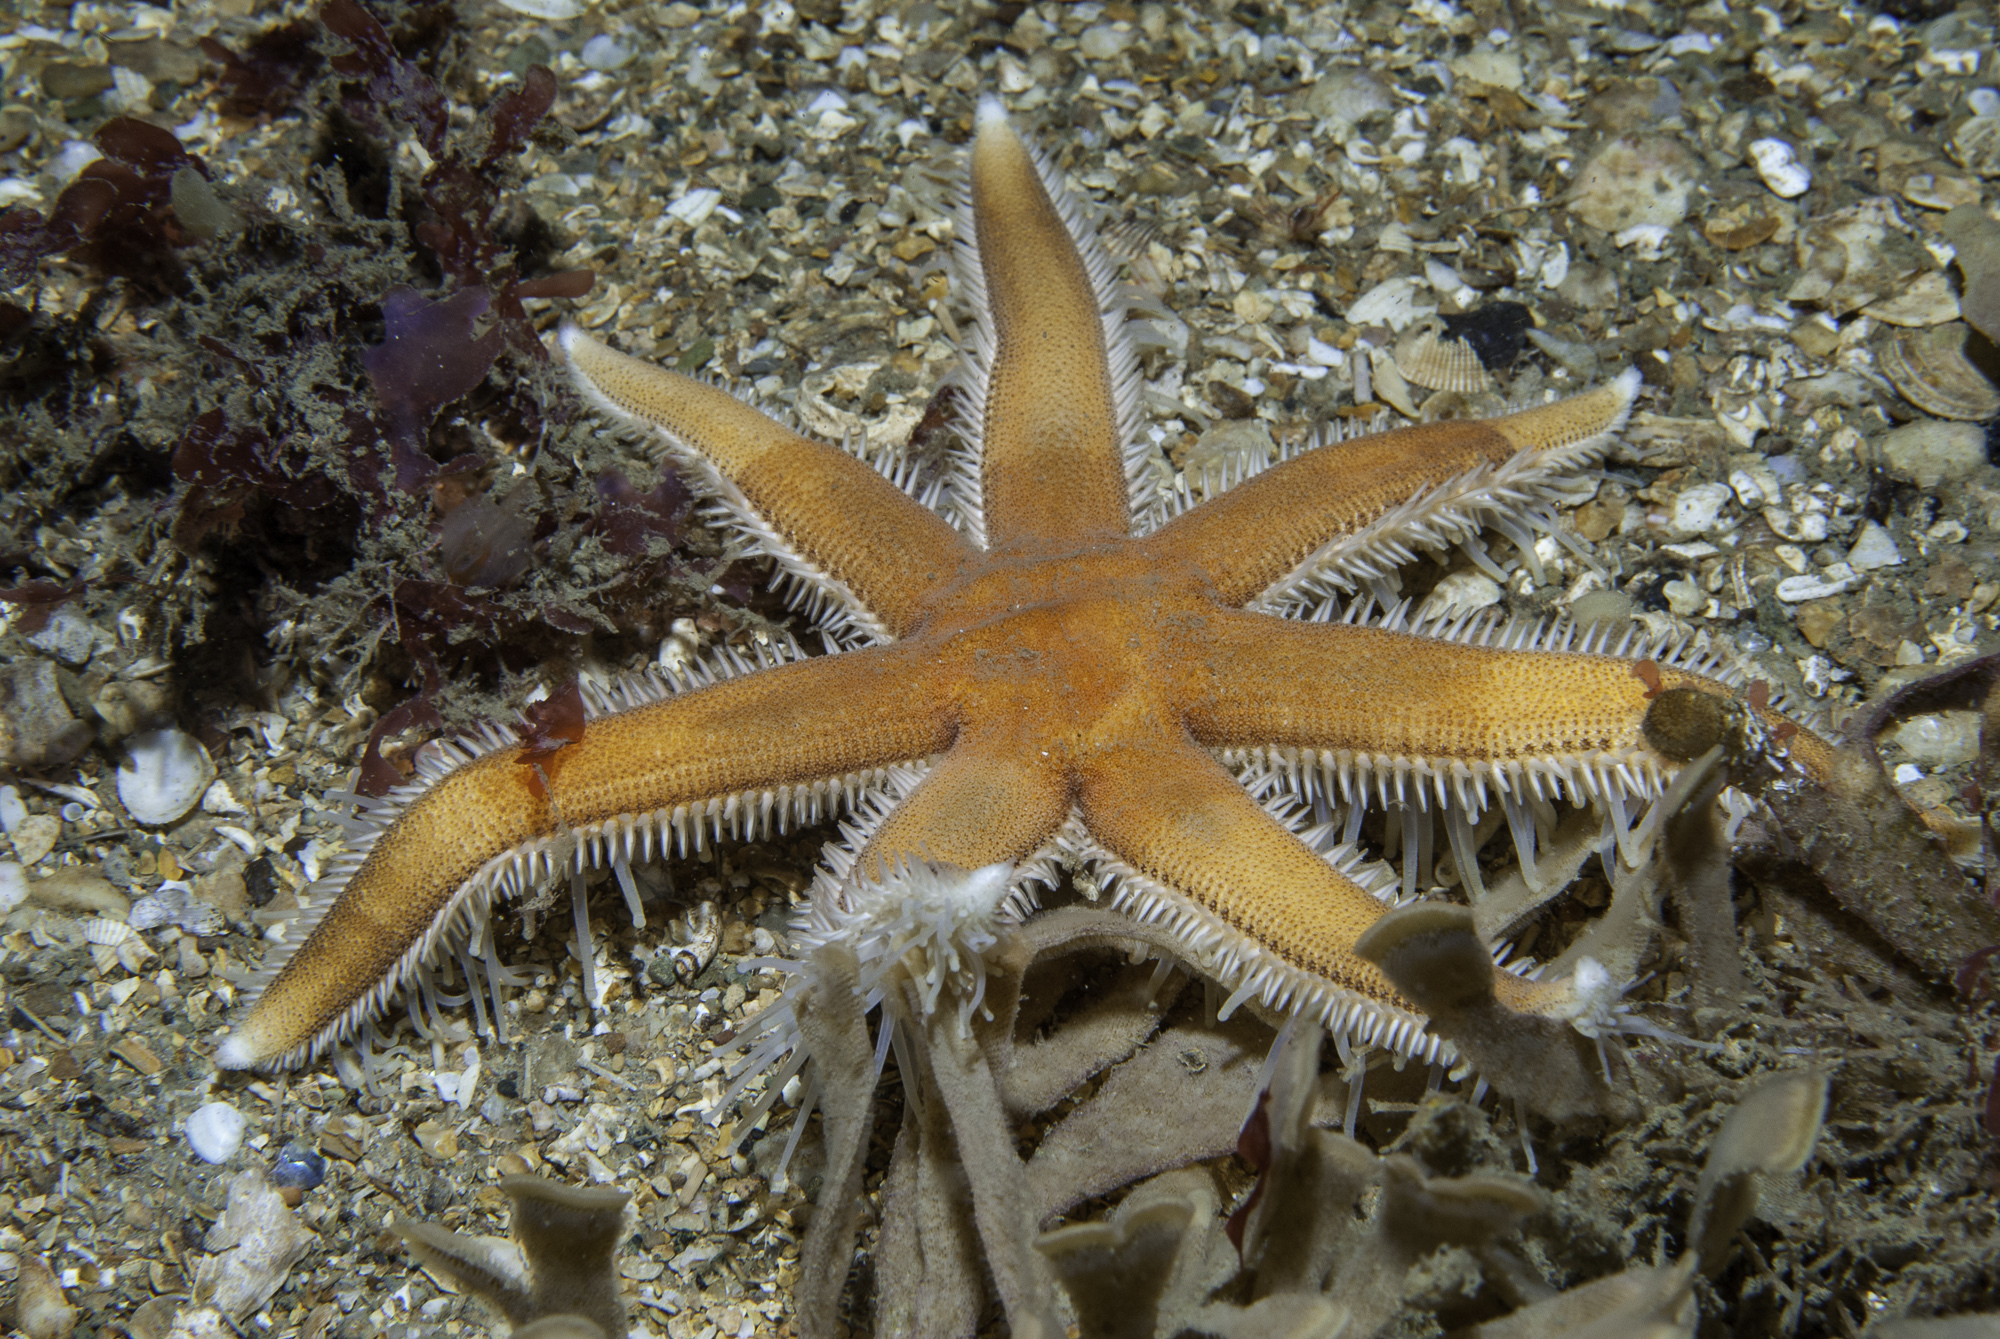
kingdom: Animalia
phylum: Echinodermata
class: Asteroidea
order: Paxillosida
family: Luidiidae
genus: Luidia
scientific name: Luidia ciliaris
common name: Seven-armed starfish
